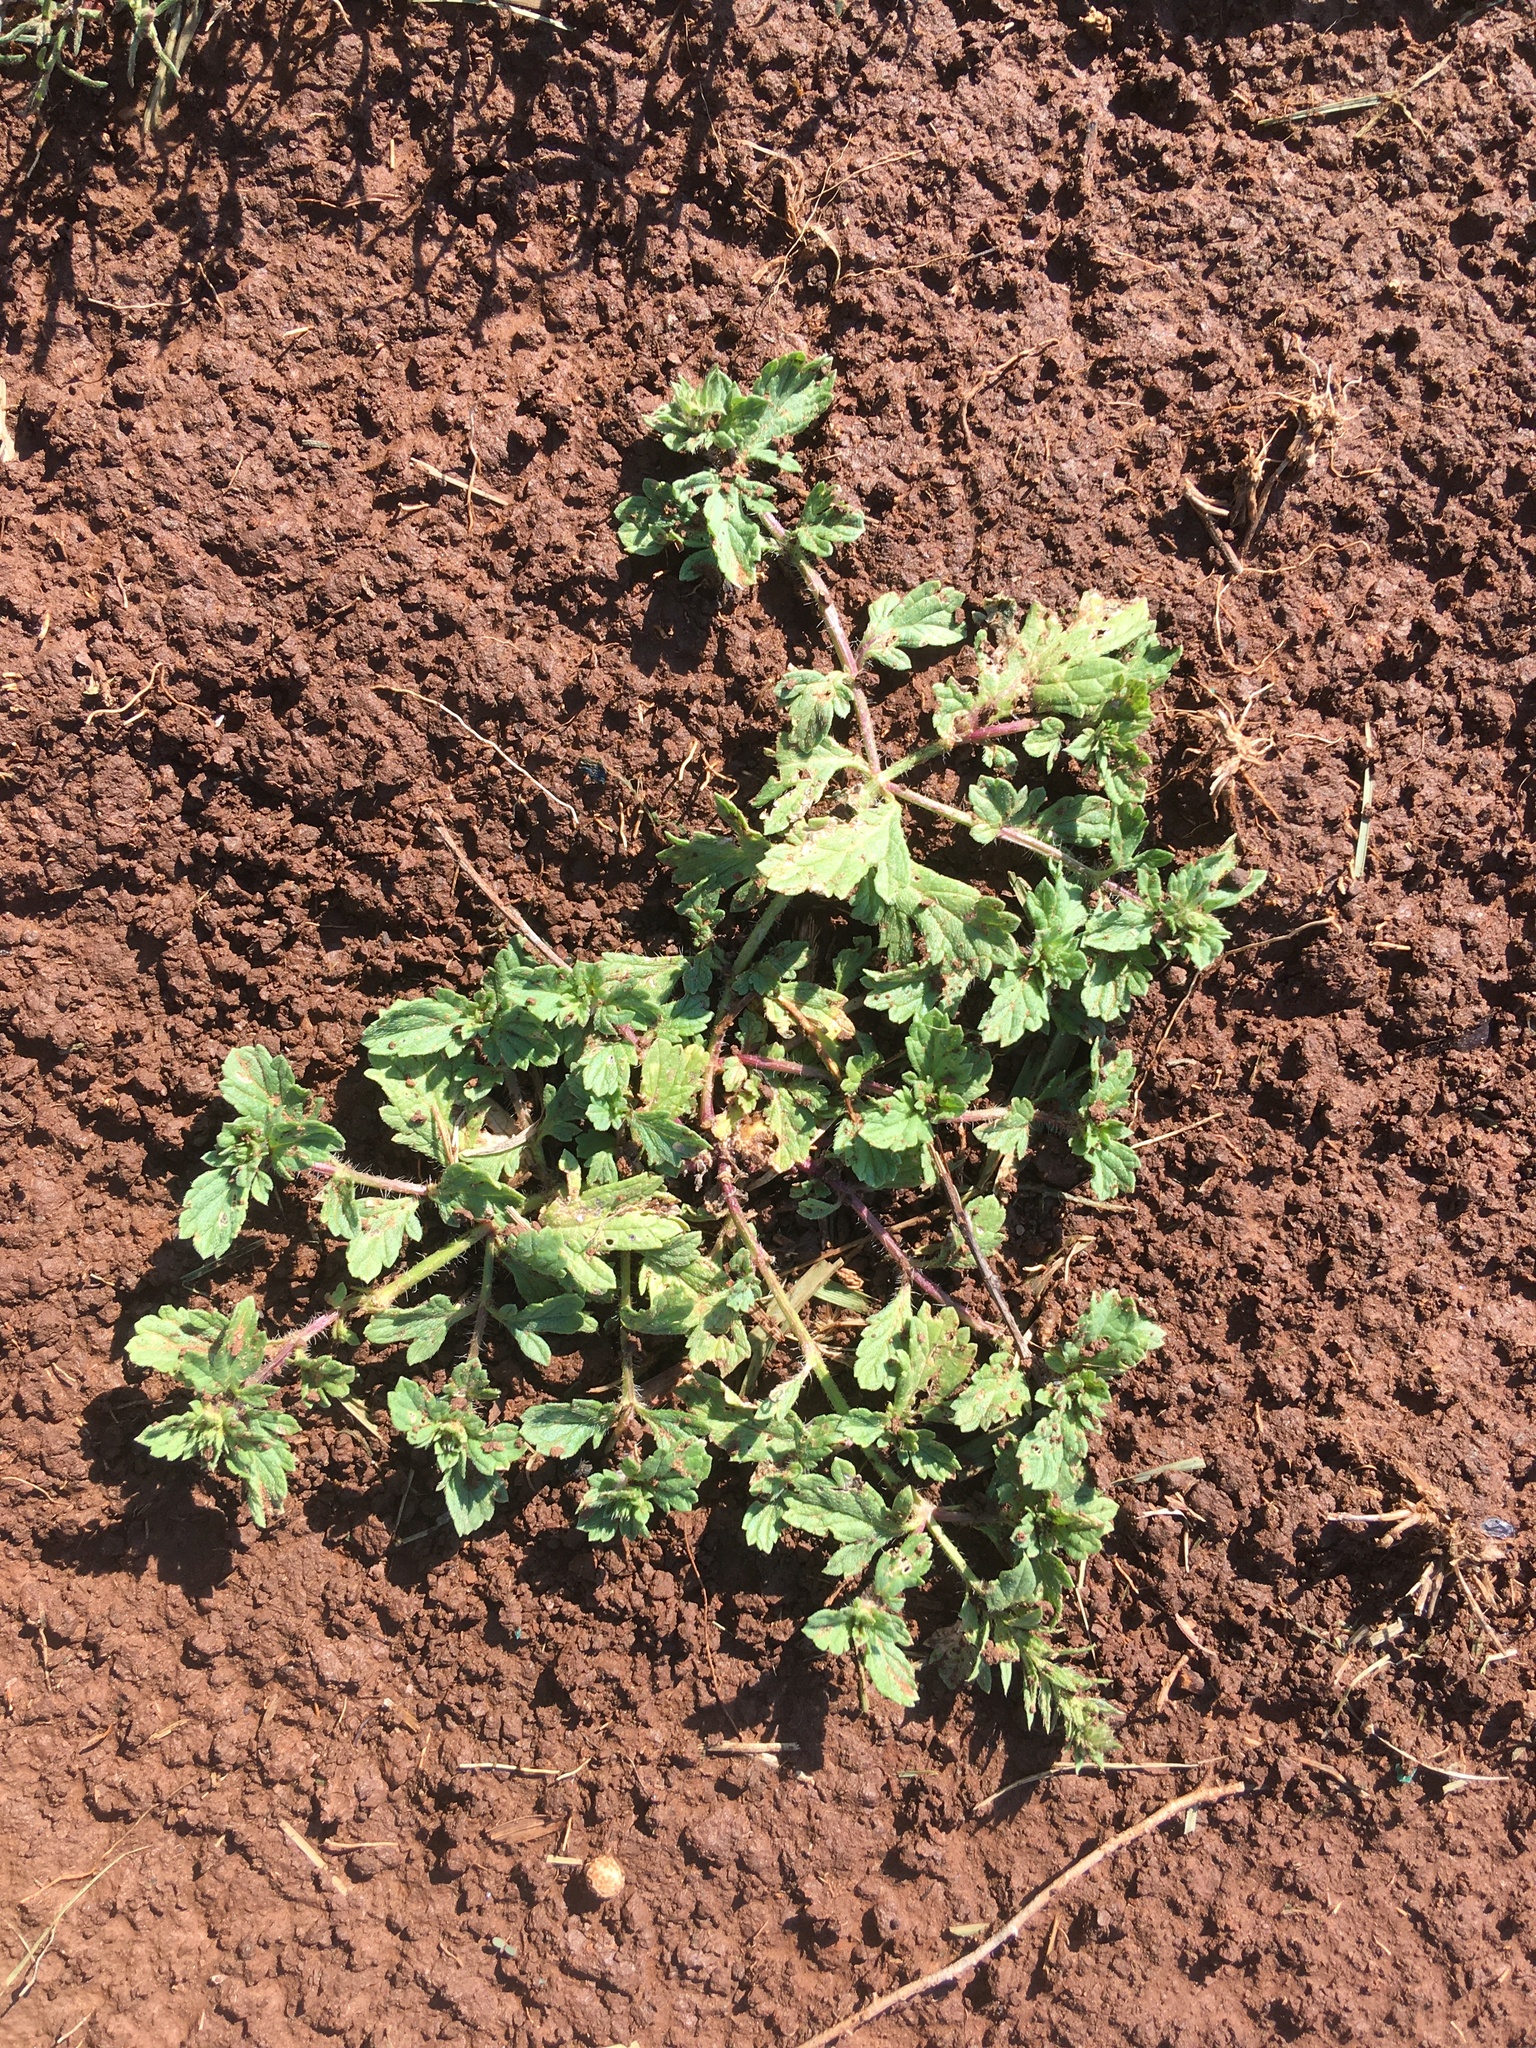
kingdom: Plantae
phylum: Tracheophyta
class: Magnoliopsida
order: Lamiales
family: Verbenaceae
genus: Verbena
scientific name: Verbena bracteata
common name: Bracted vervain
